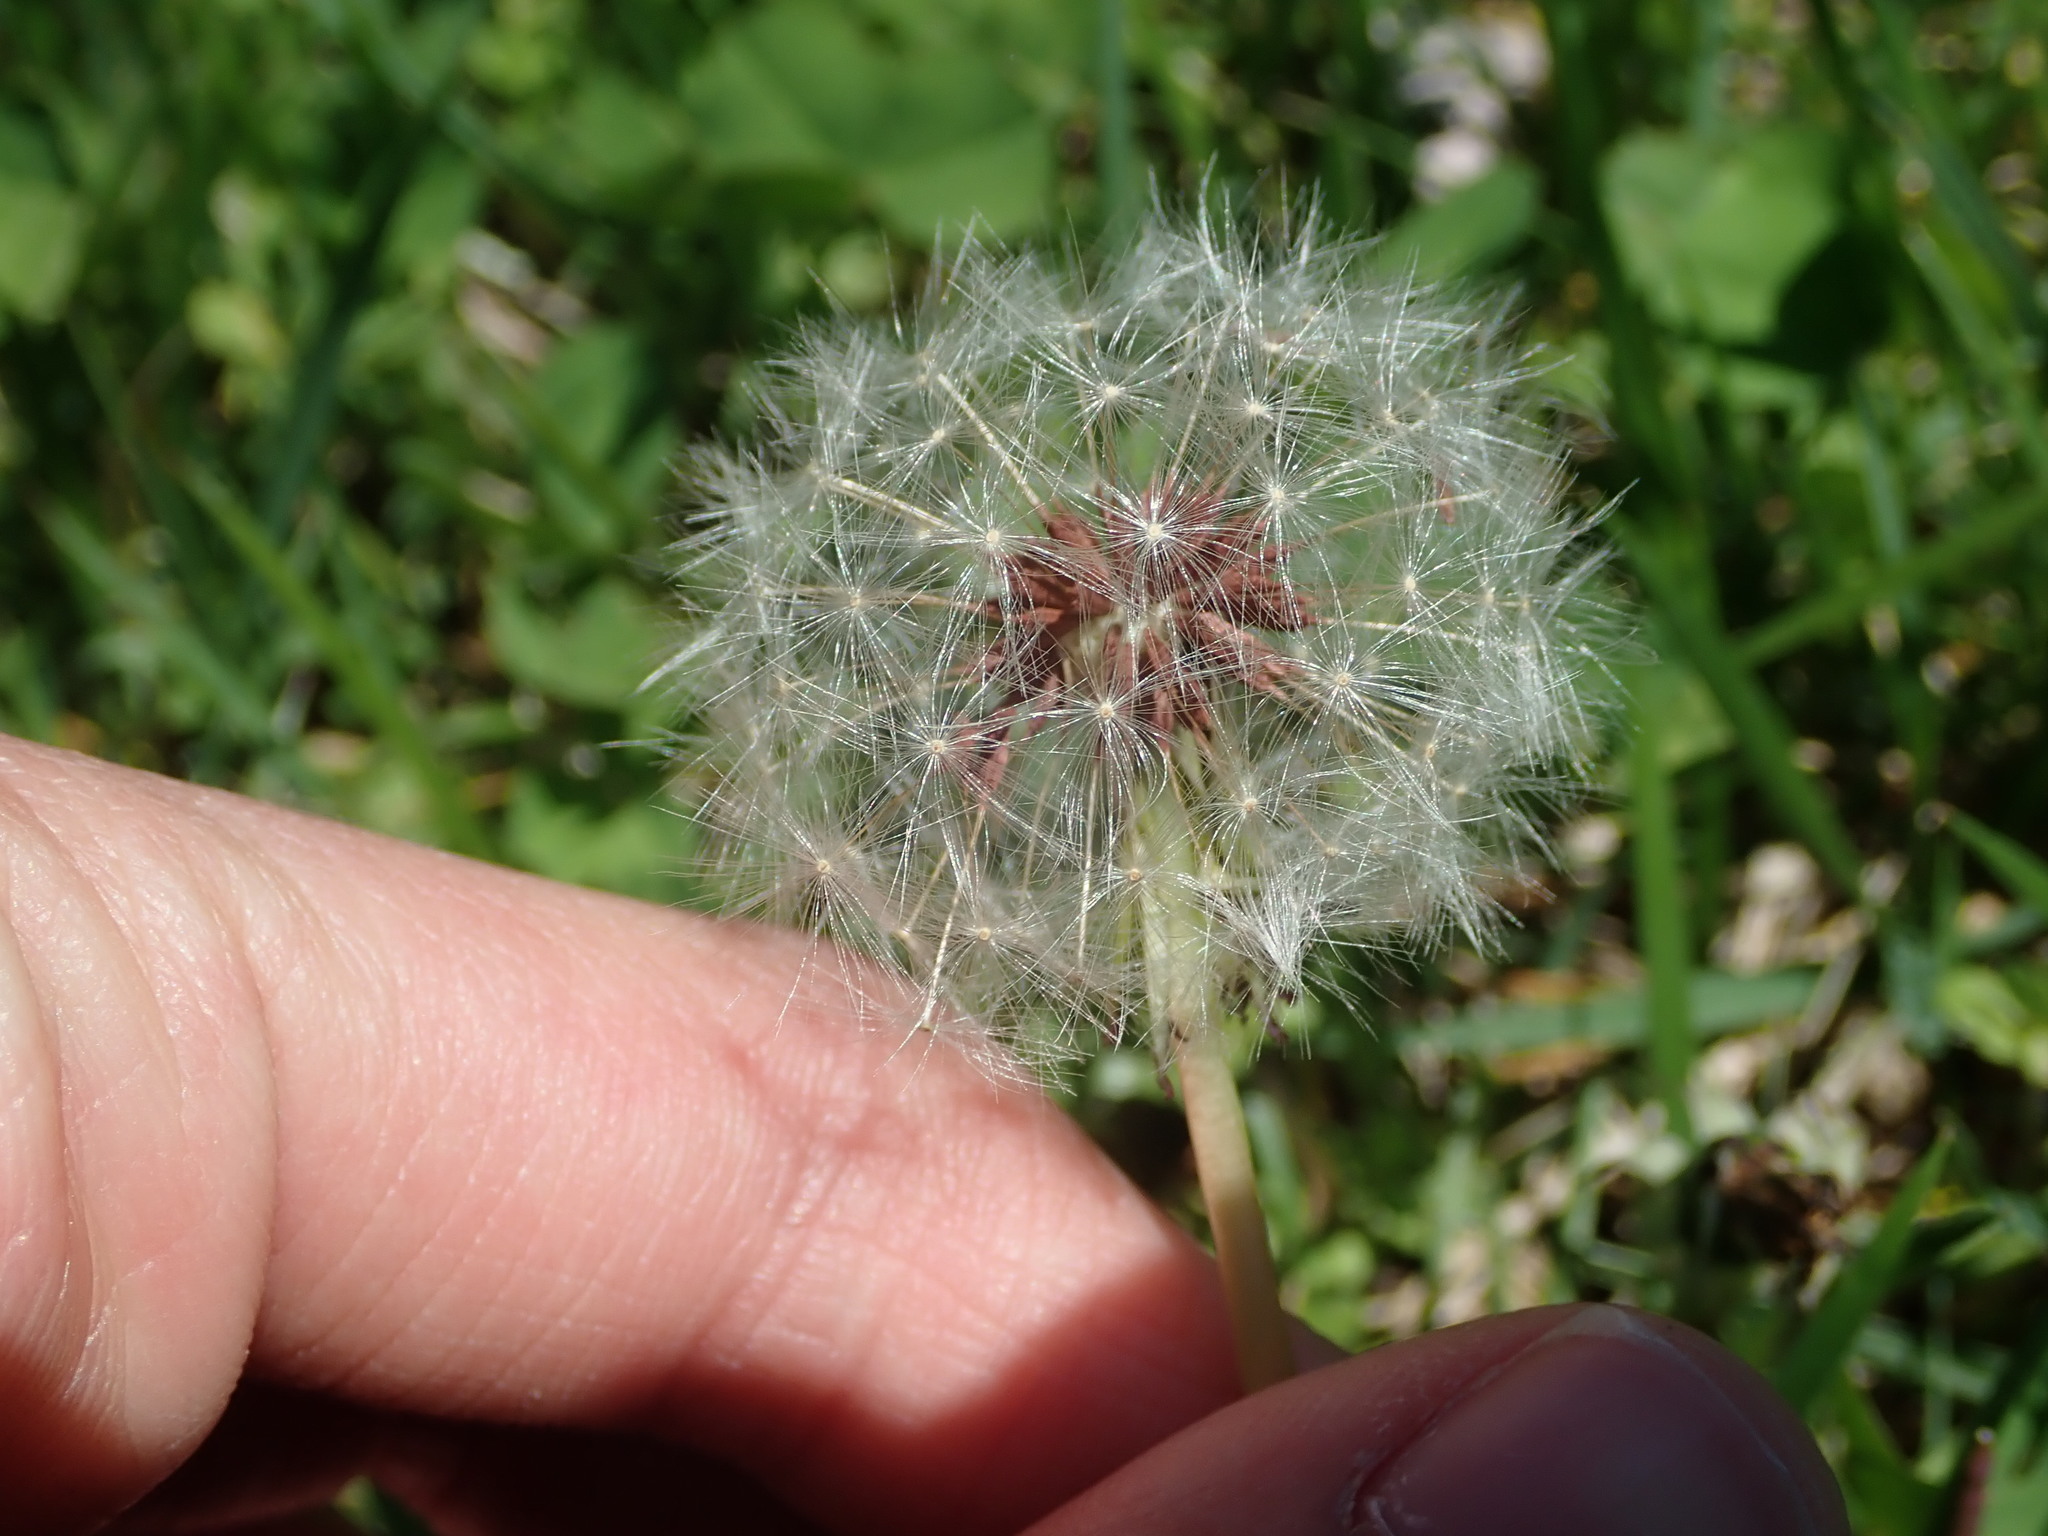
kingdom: Plantae
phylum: Tracheophyta
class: Magnoliopsida
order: Asterales
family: Asteraceae
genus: Taraxacum
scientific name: Taraxacum erythrospermum
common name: Rock dandelion
